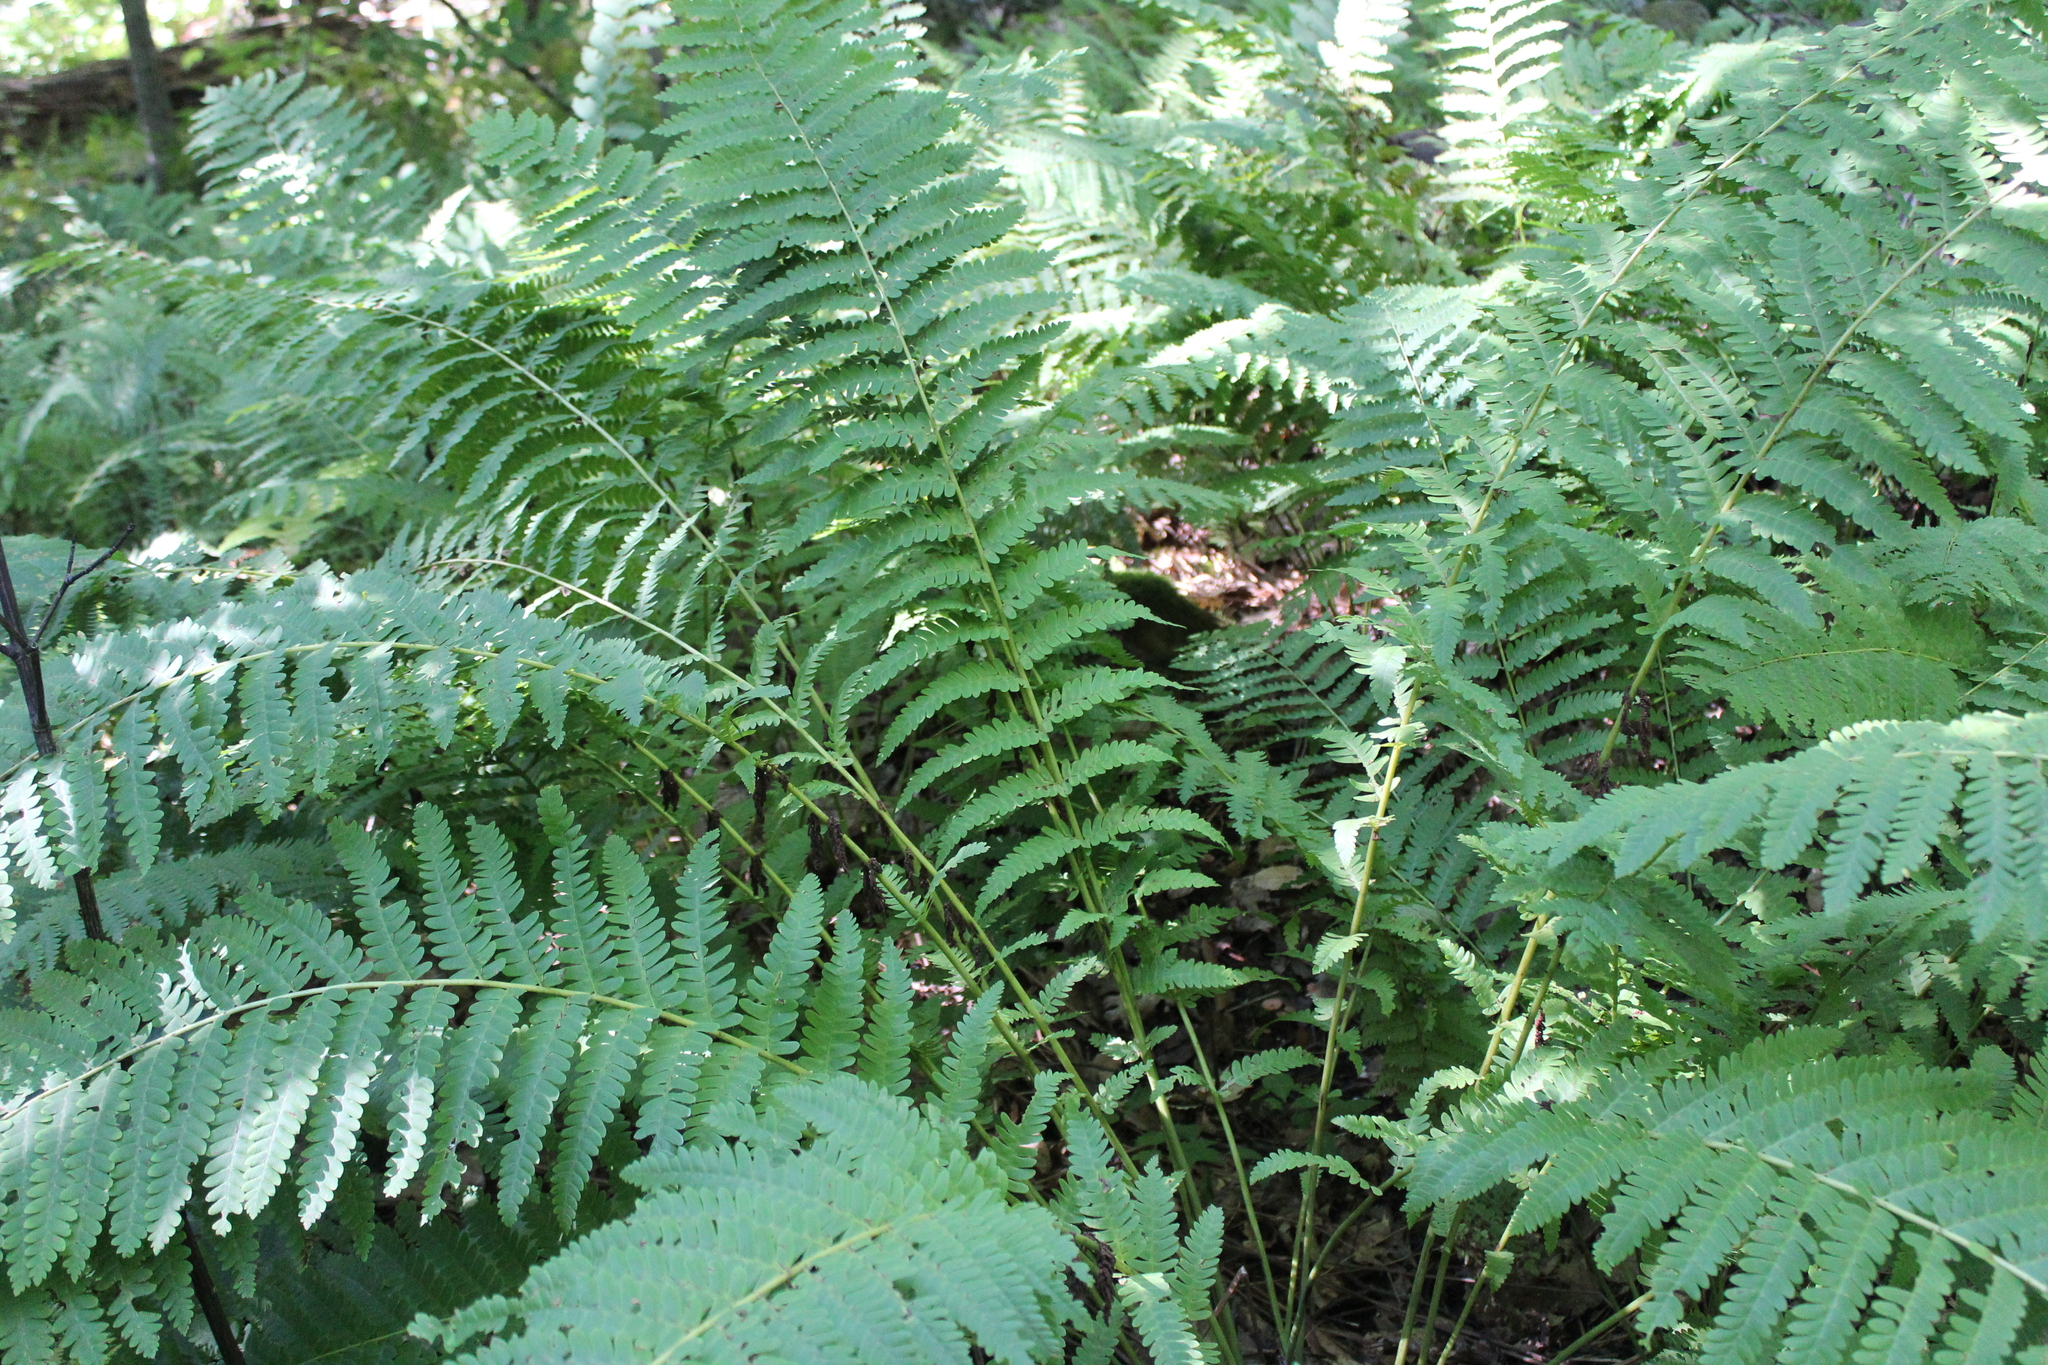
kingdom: Plantae
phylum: Tracheophyta
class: Polypodiopsida
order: Osmundales
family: Osmundaceae
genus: Claytosmunda
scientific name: Claytosmunda claytoniana
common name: Clayton's fern
